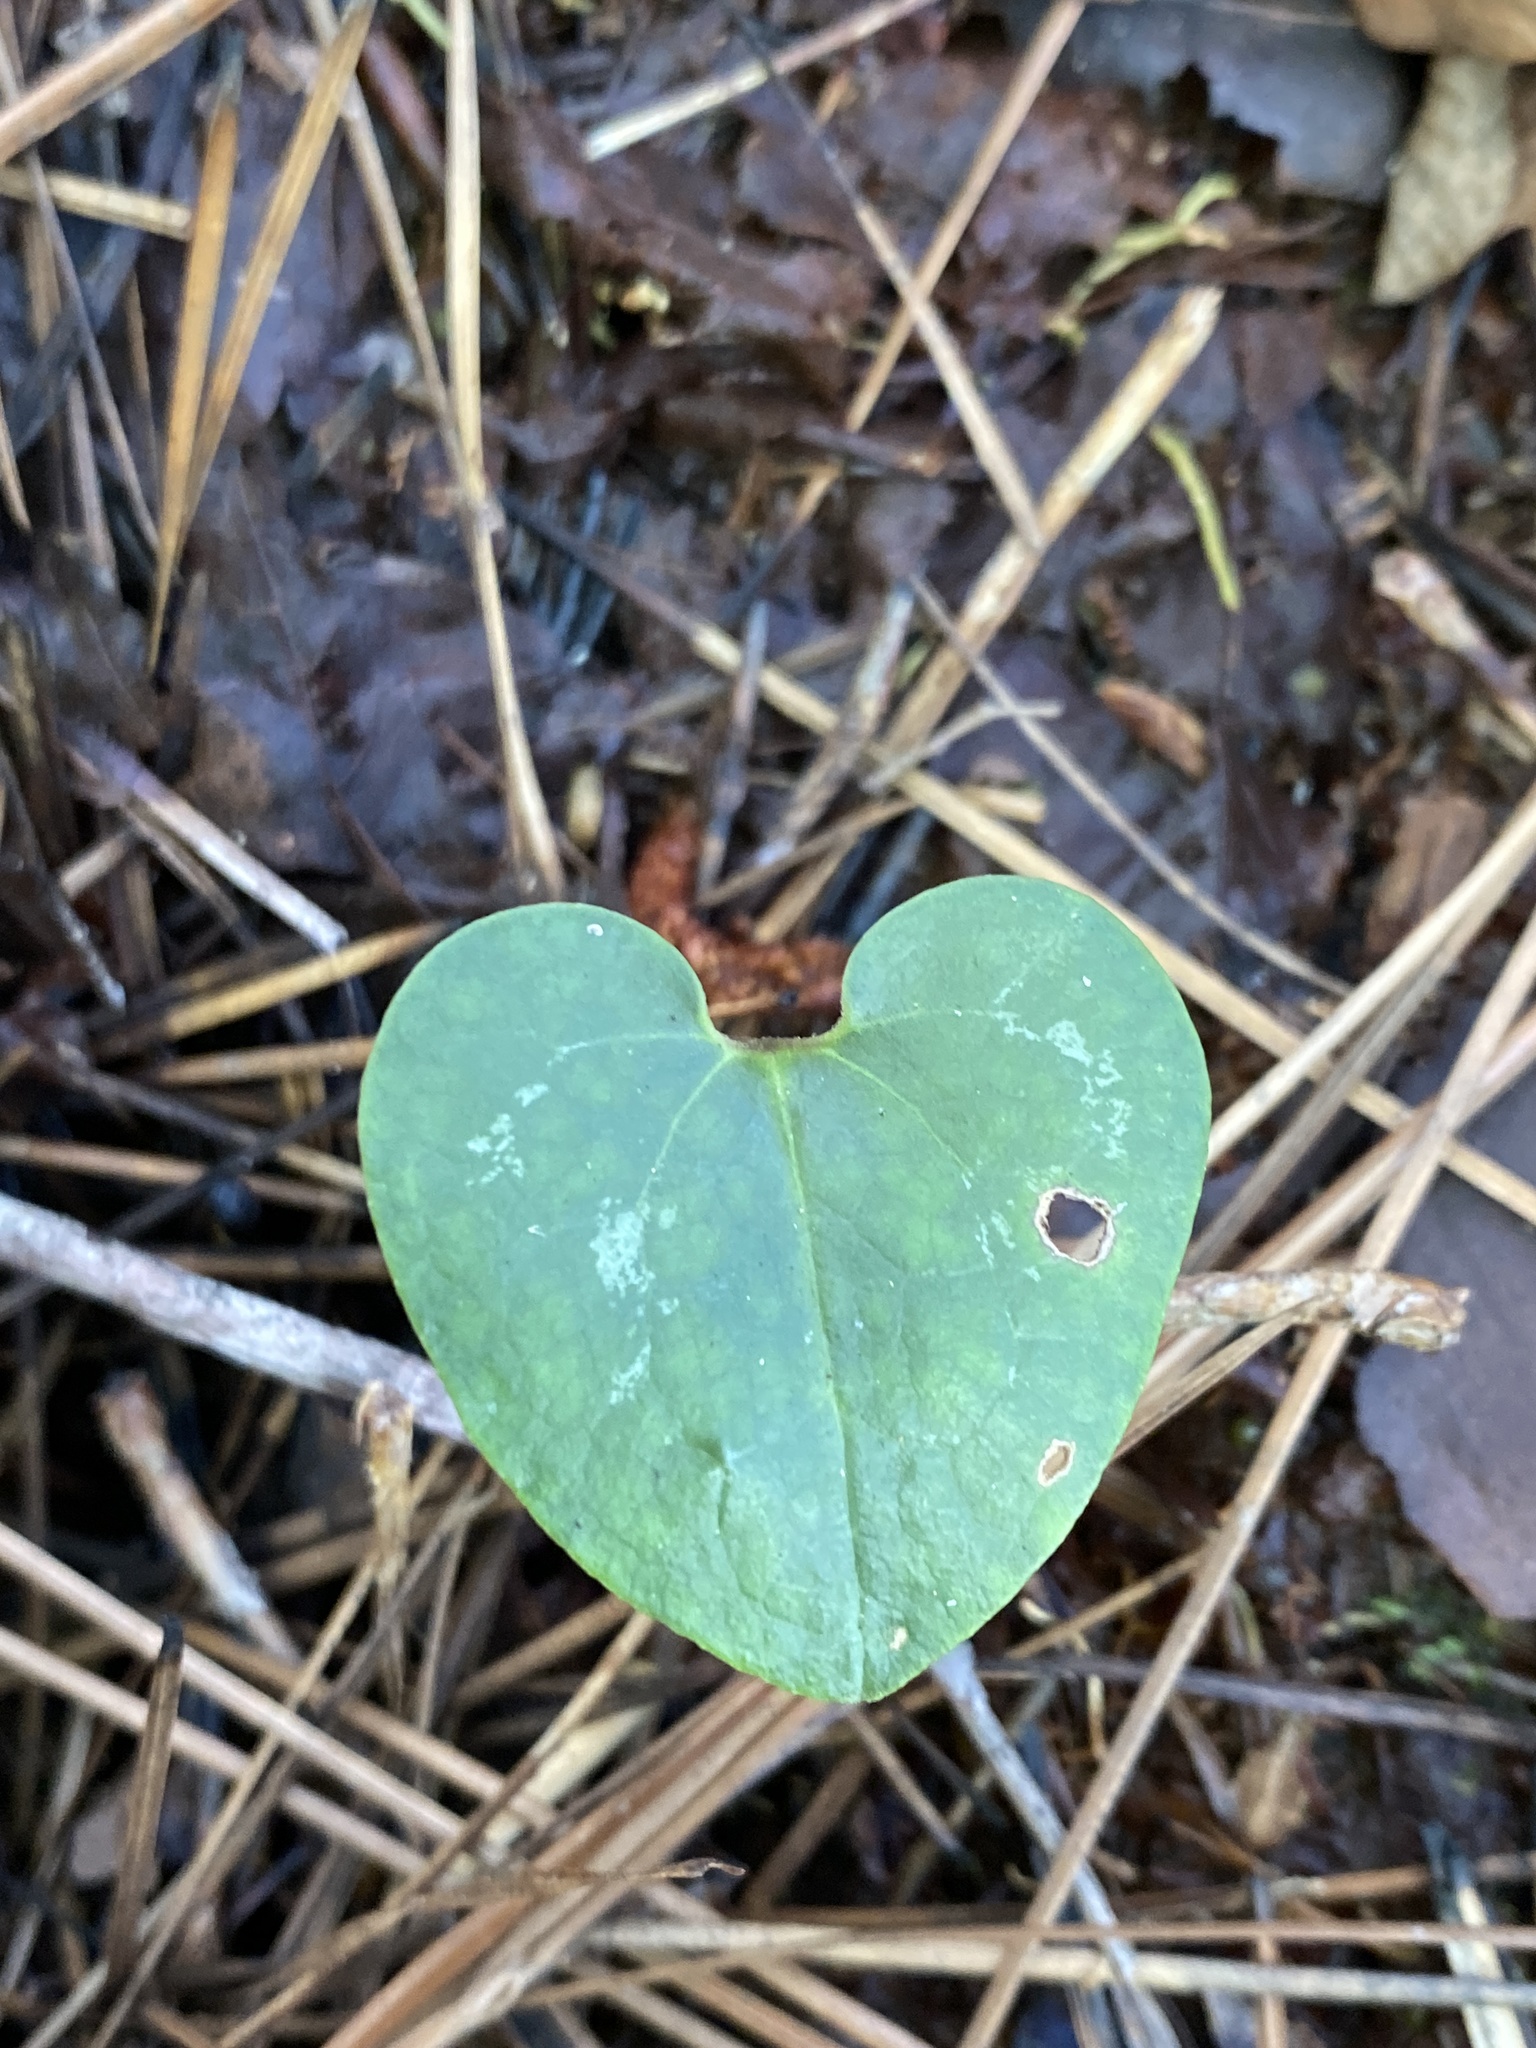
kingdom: Plantae
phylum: Tracheophyta
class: Magnoliopsida
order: Piperales
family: Aristolochiaceae
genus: Hexastylis
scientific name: Hexastylis sorriei
